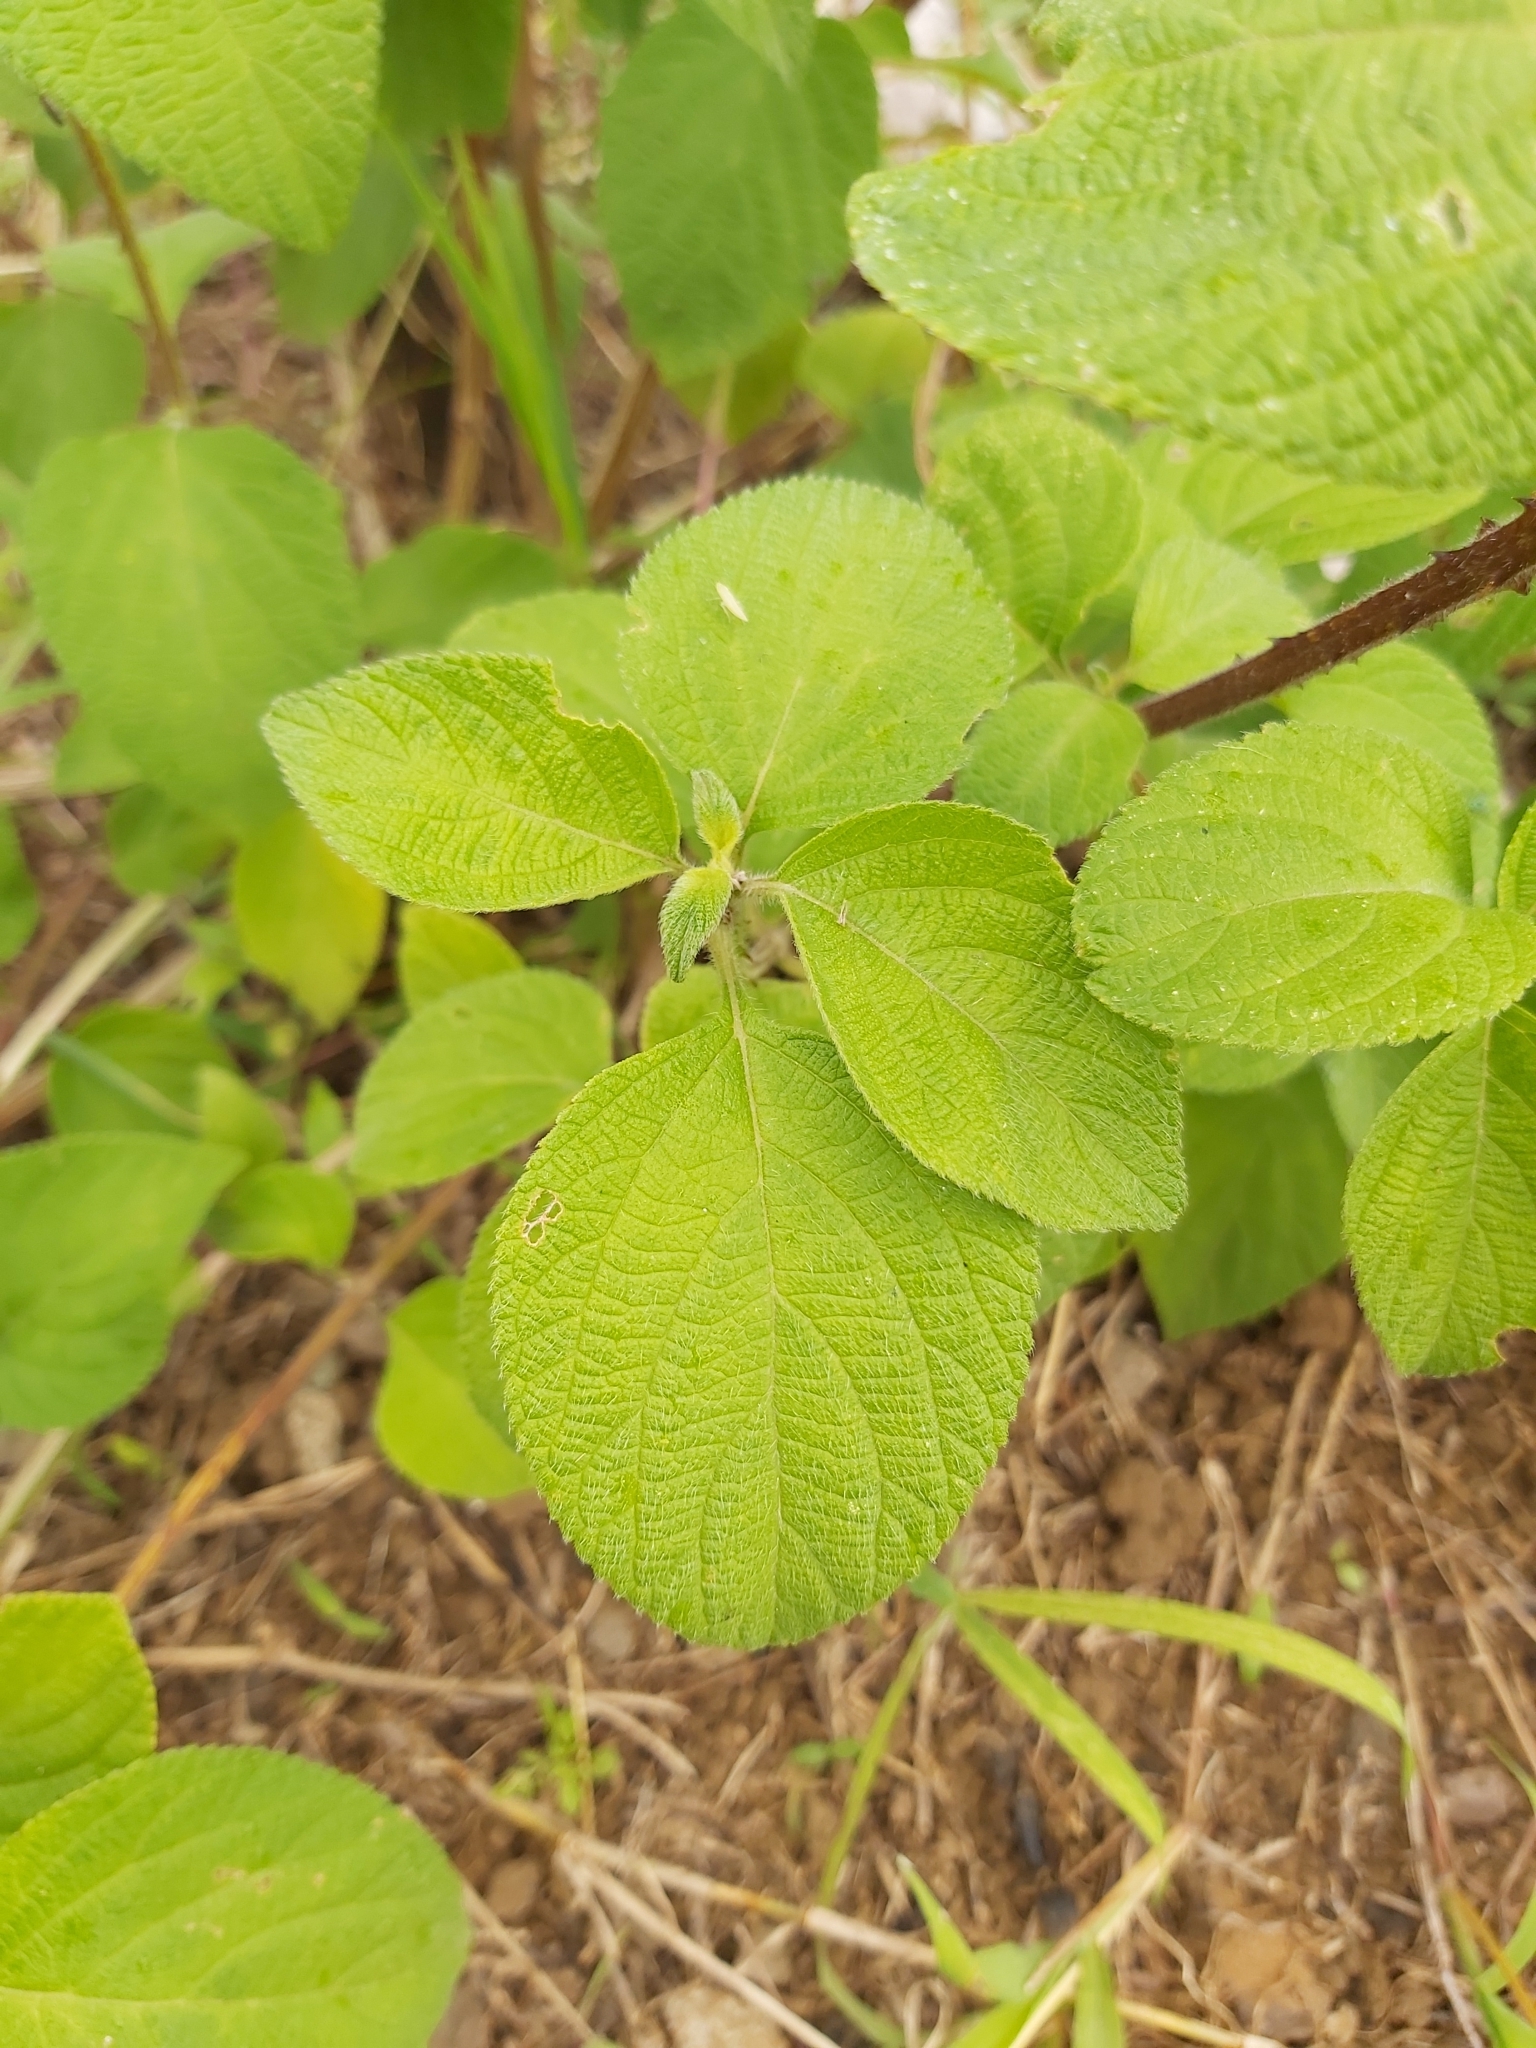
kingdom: Plantae
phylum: Tracheophyta
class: Magnoliopsida
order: Lamiales
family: Verbenaceae
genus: Lantana
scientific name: Lantana camara
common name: Lantana
